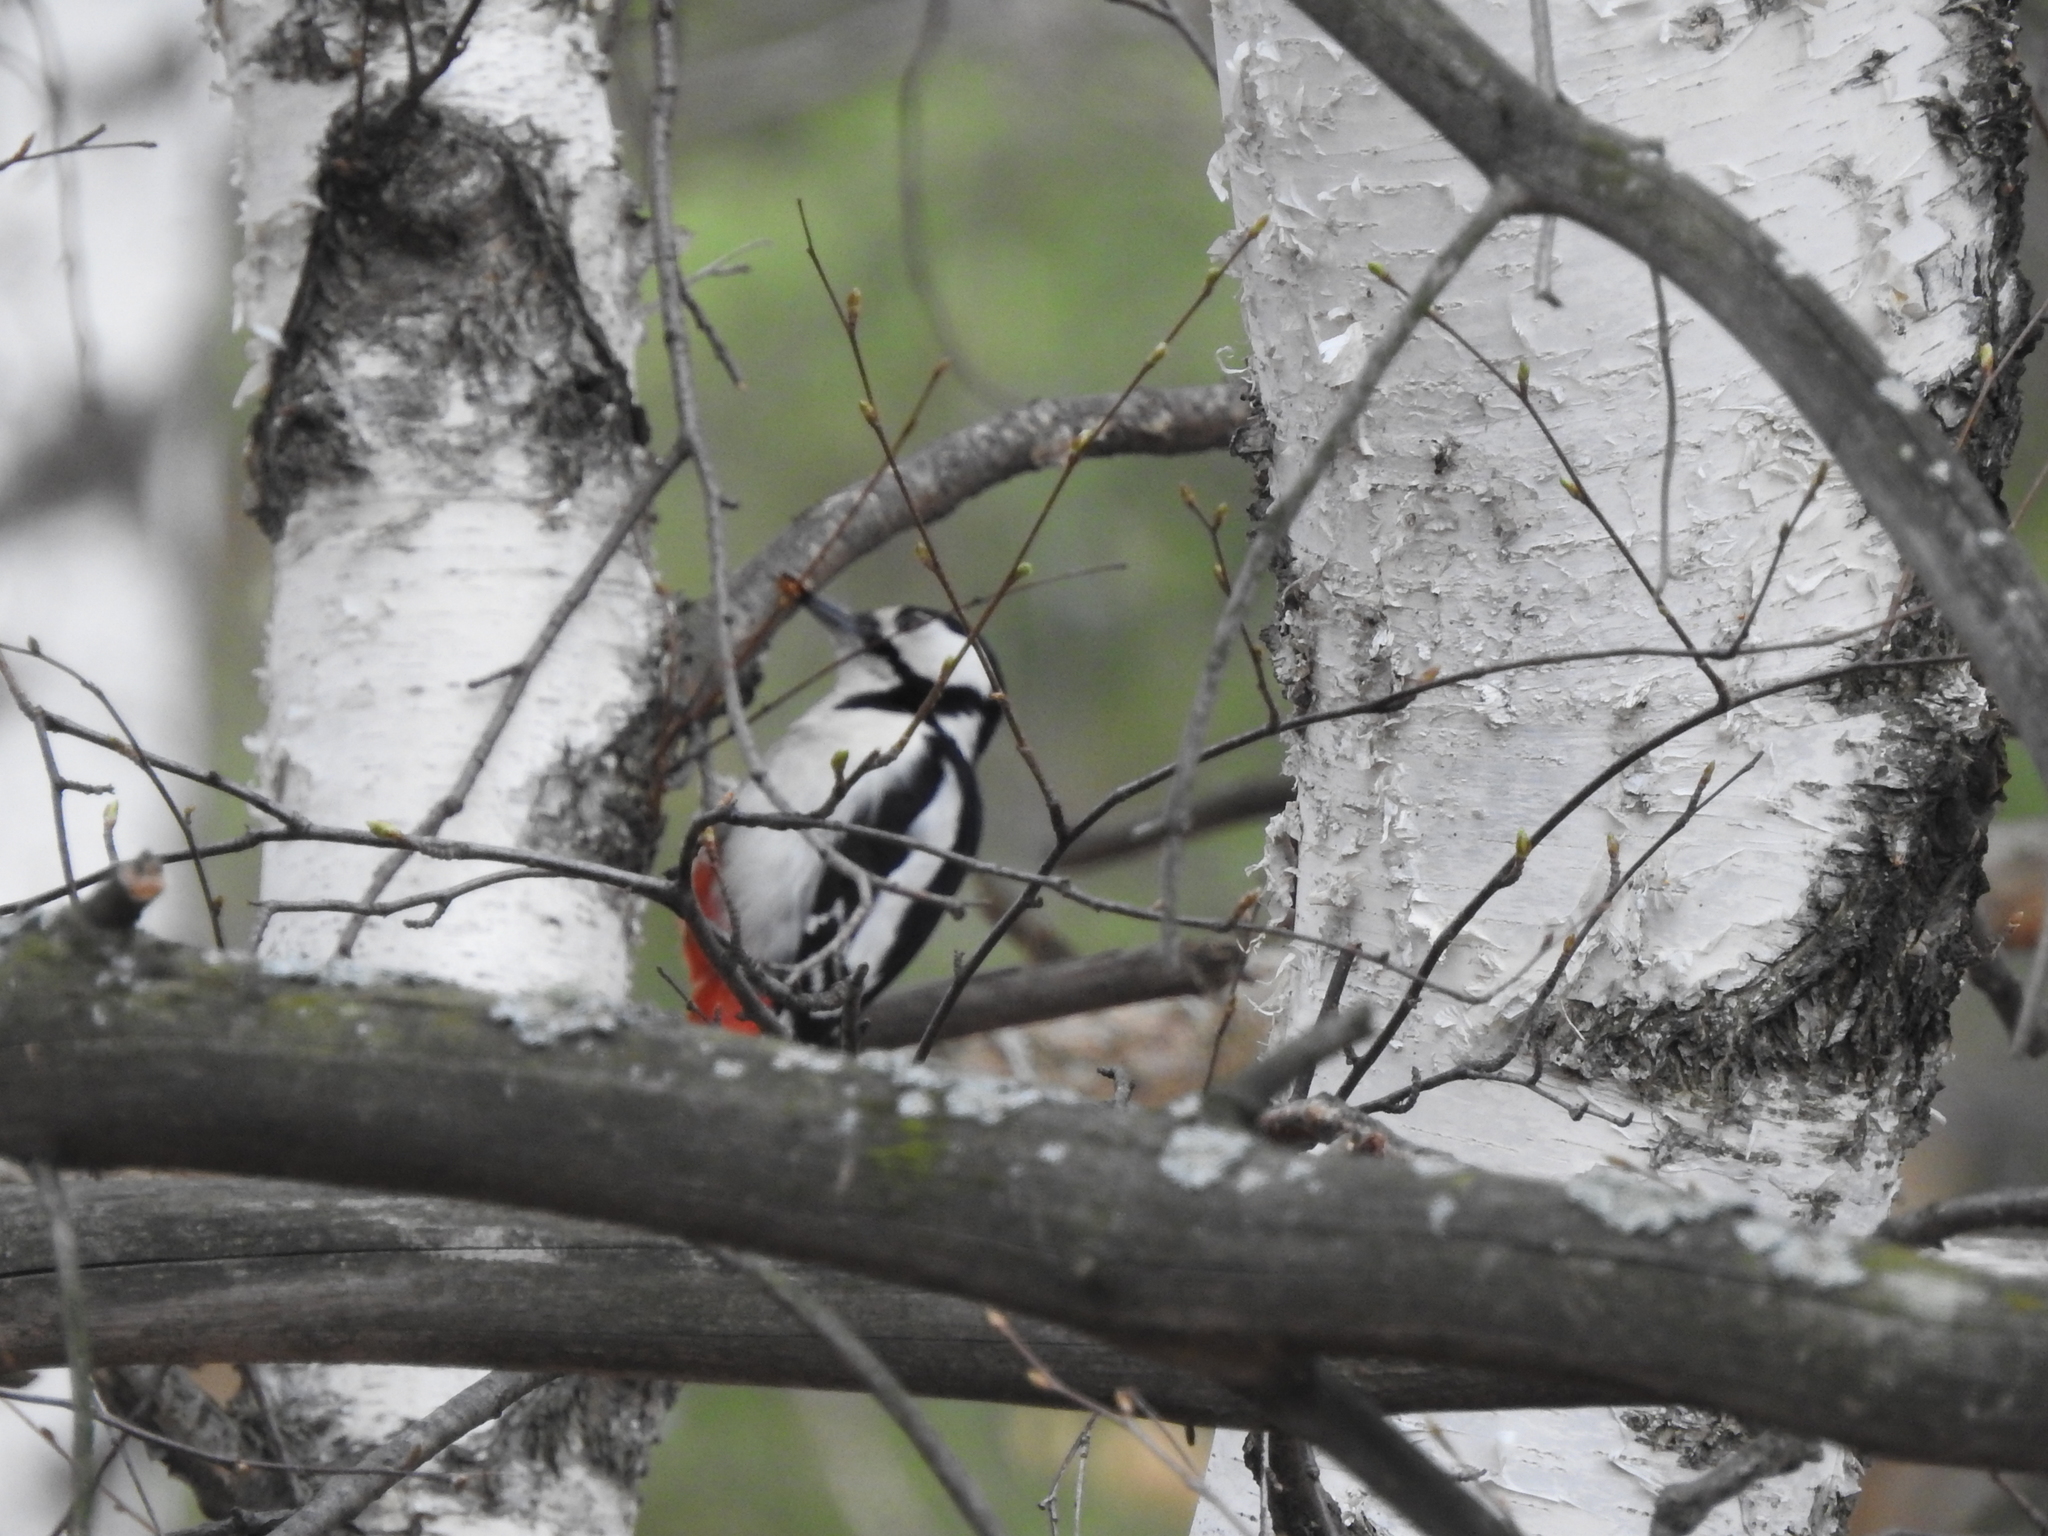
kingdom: Animalia
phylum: Chordata
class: Aves
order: Piciformes
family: Picidae
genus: Dendrocopos
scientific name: Dendrocopos major
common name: Great spotted woodpecker
